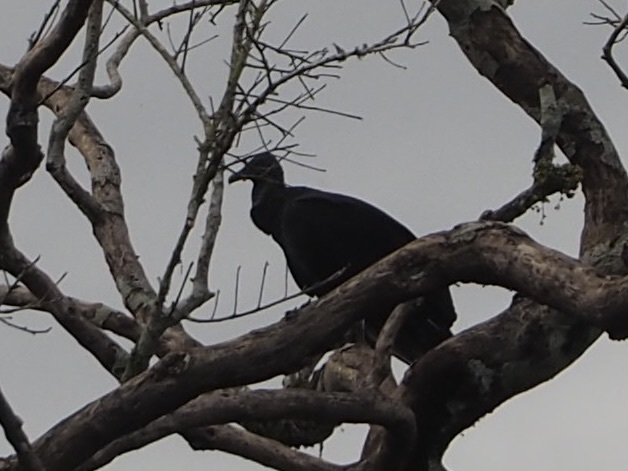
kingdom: Animalia
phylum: Chordata
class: Aves
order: Accipitriformes
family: Cathartidae
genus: Coragyps
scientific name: Coragyps atratus
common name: Black vulture
